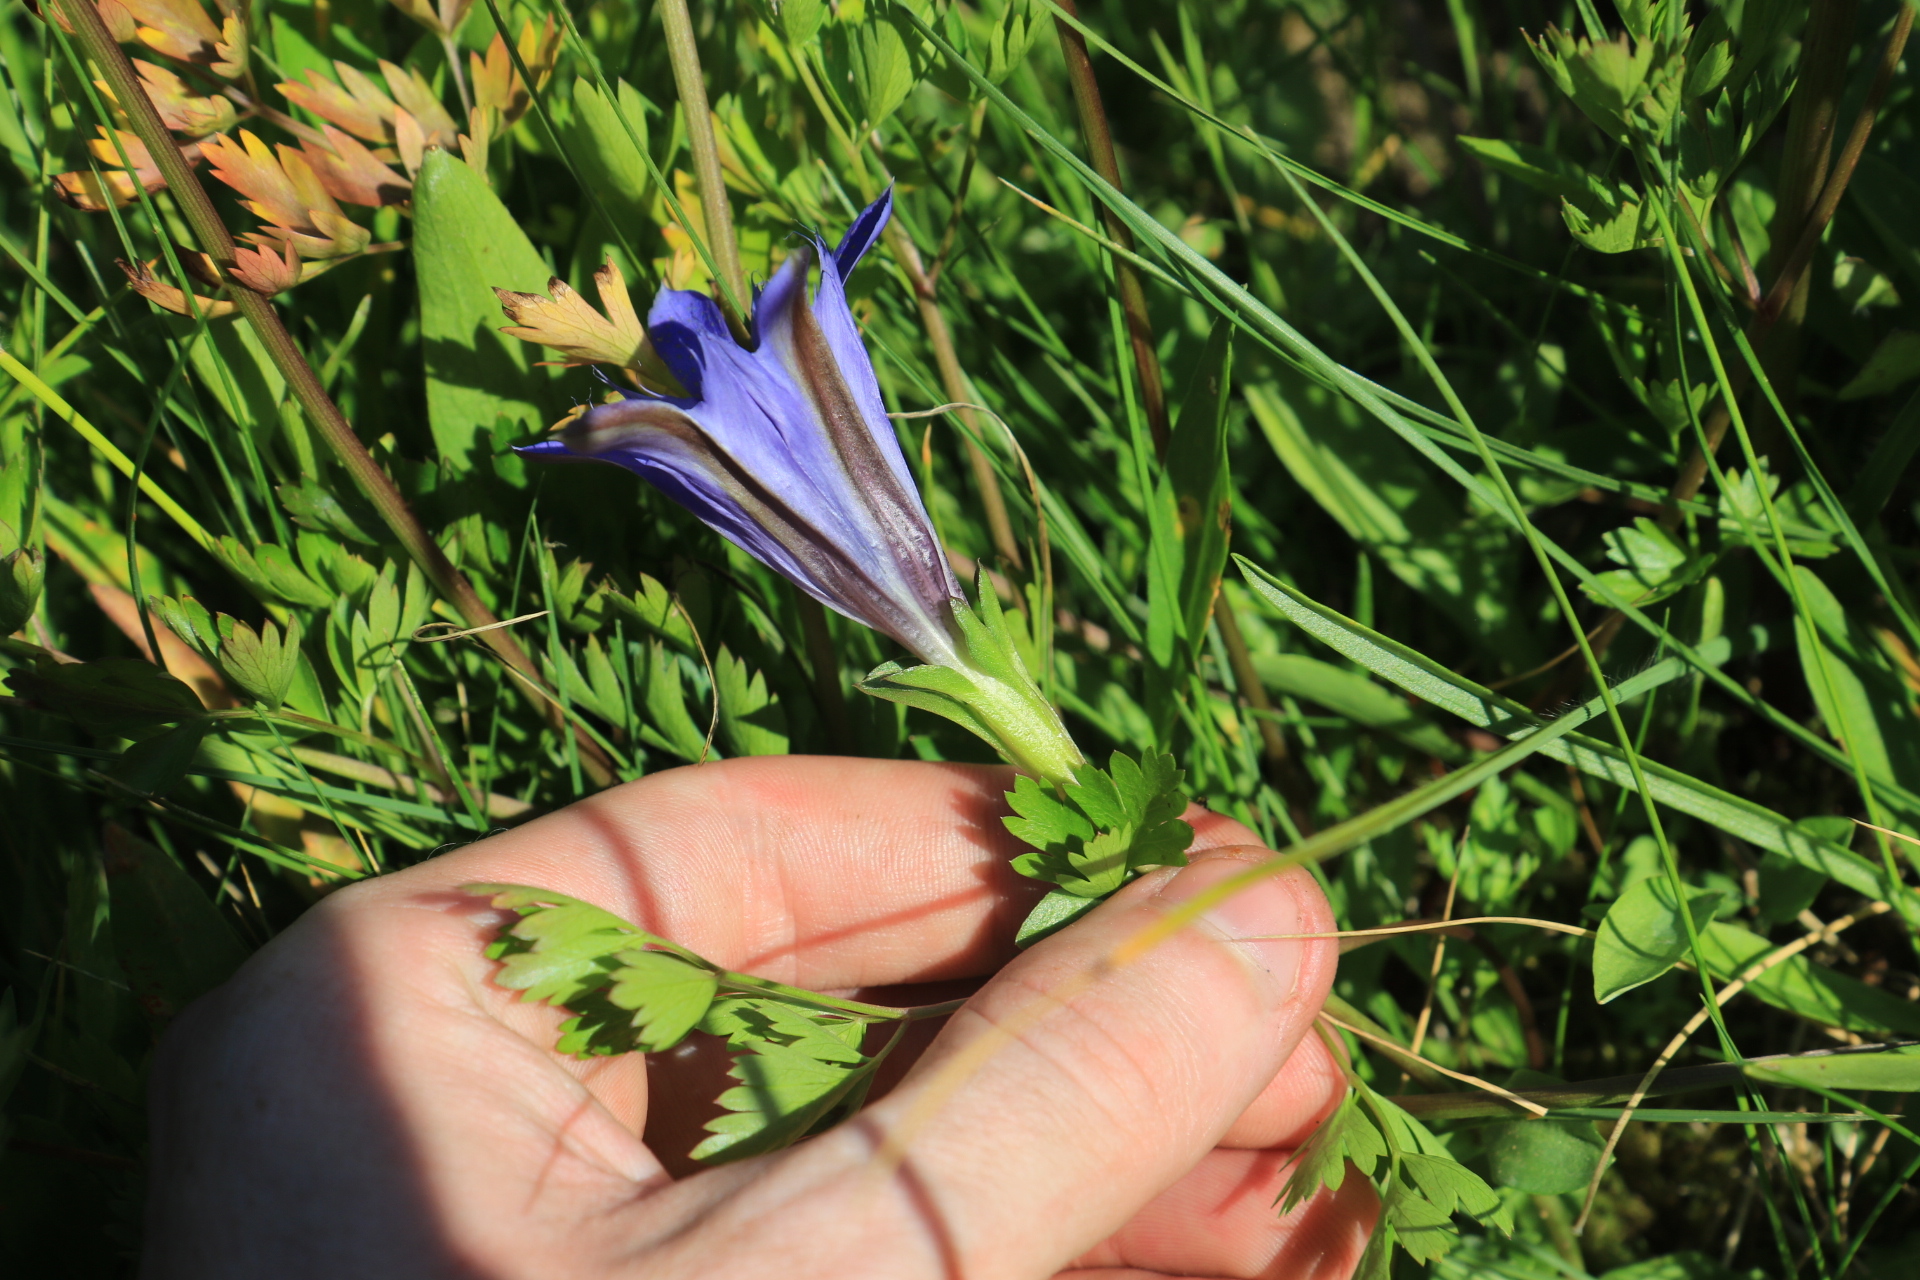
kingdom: Plantae
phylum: Tracheophyta
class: Magnoliopsida
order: Gentianales
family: Gentianaceae
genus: Gentiana
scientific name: Gentiana newberryi
